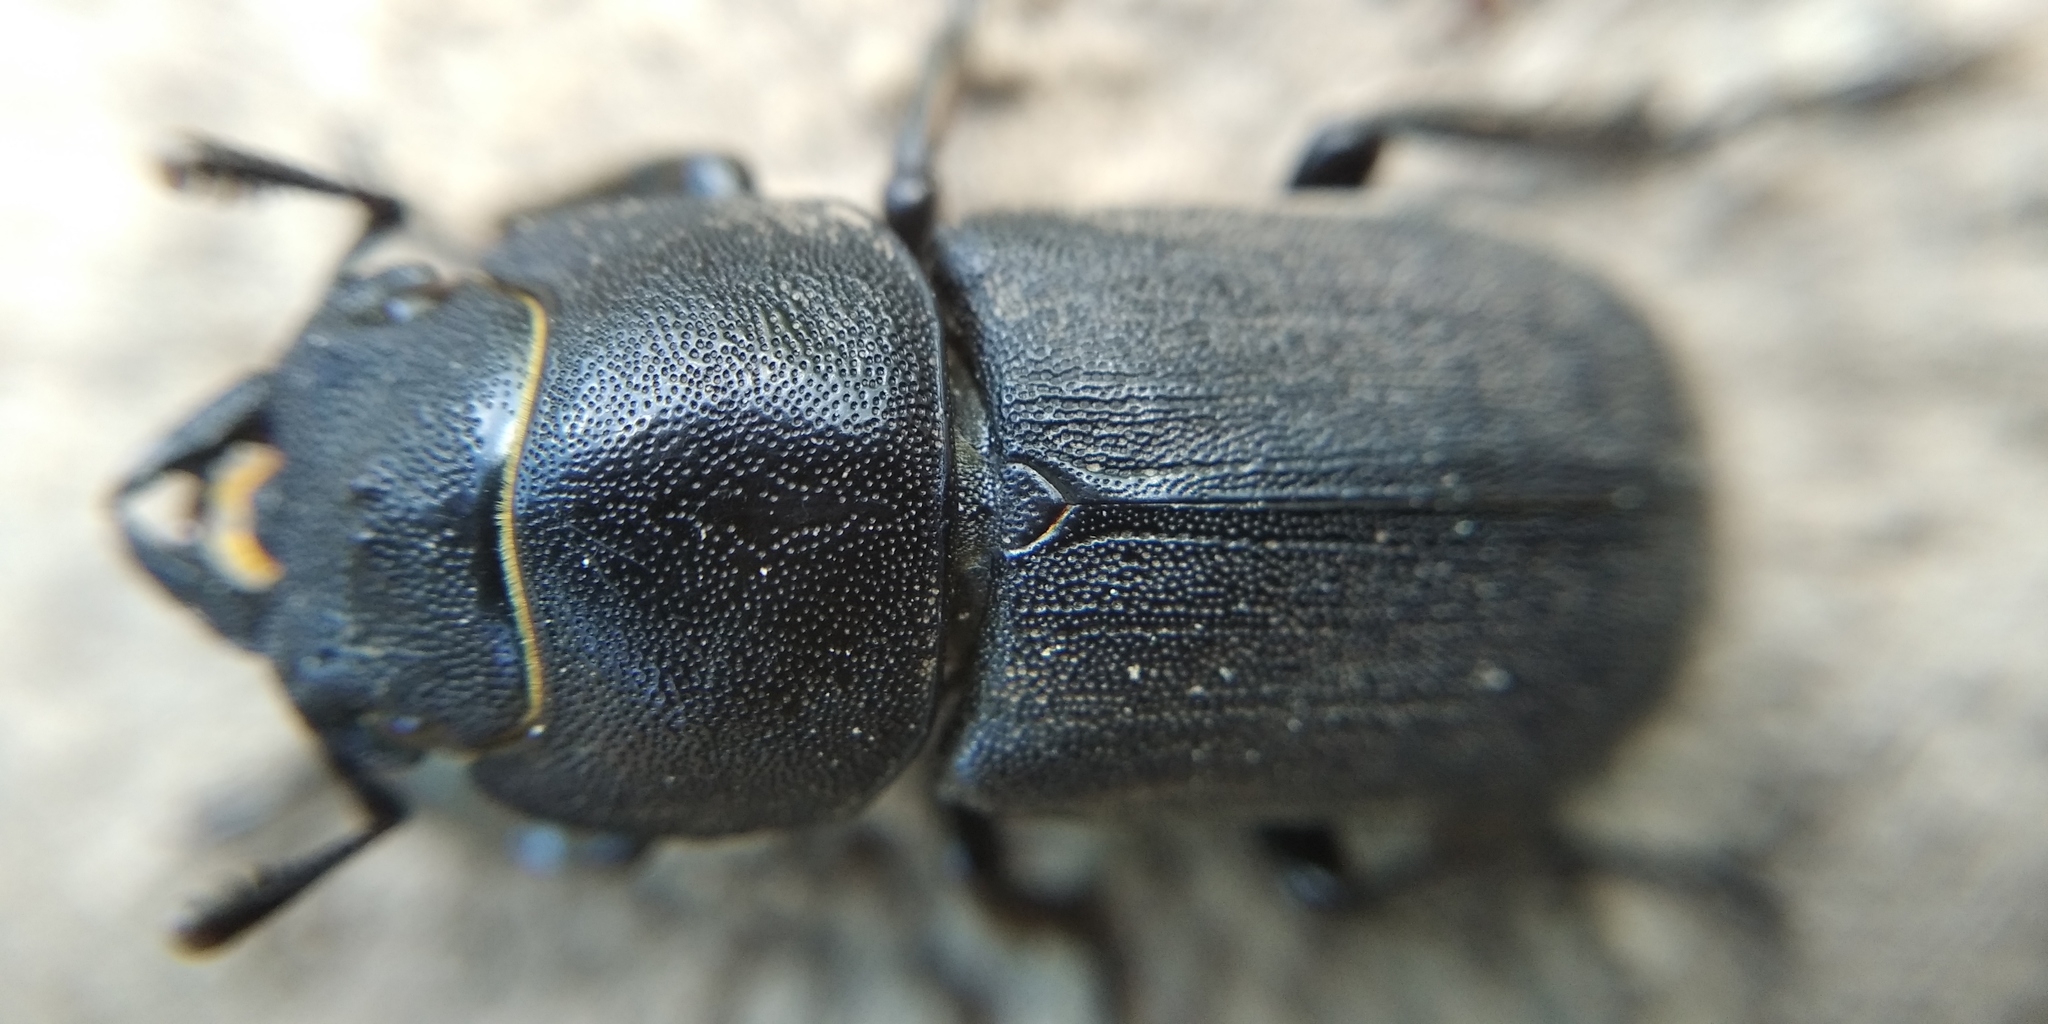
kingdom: Animalia
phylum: Arthropoda
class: Insecta
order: Coleoptera
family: Lucanidae
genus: Dorcus
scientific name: Dorcus parallelipipedus
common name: Lesser stag beetle
